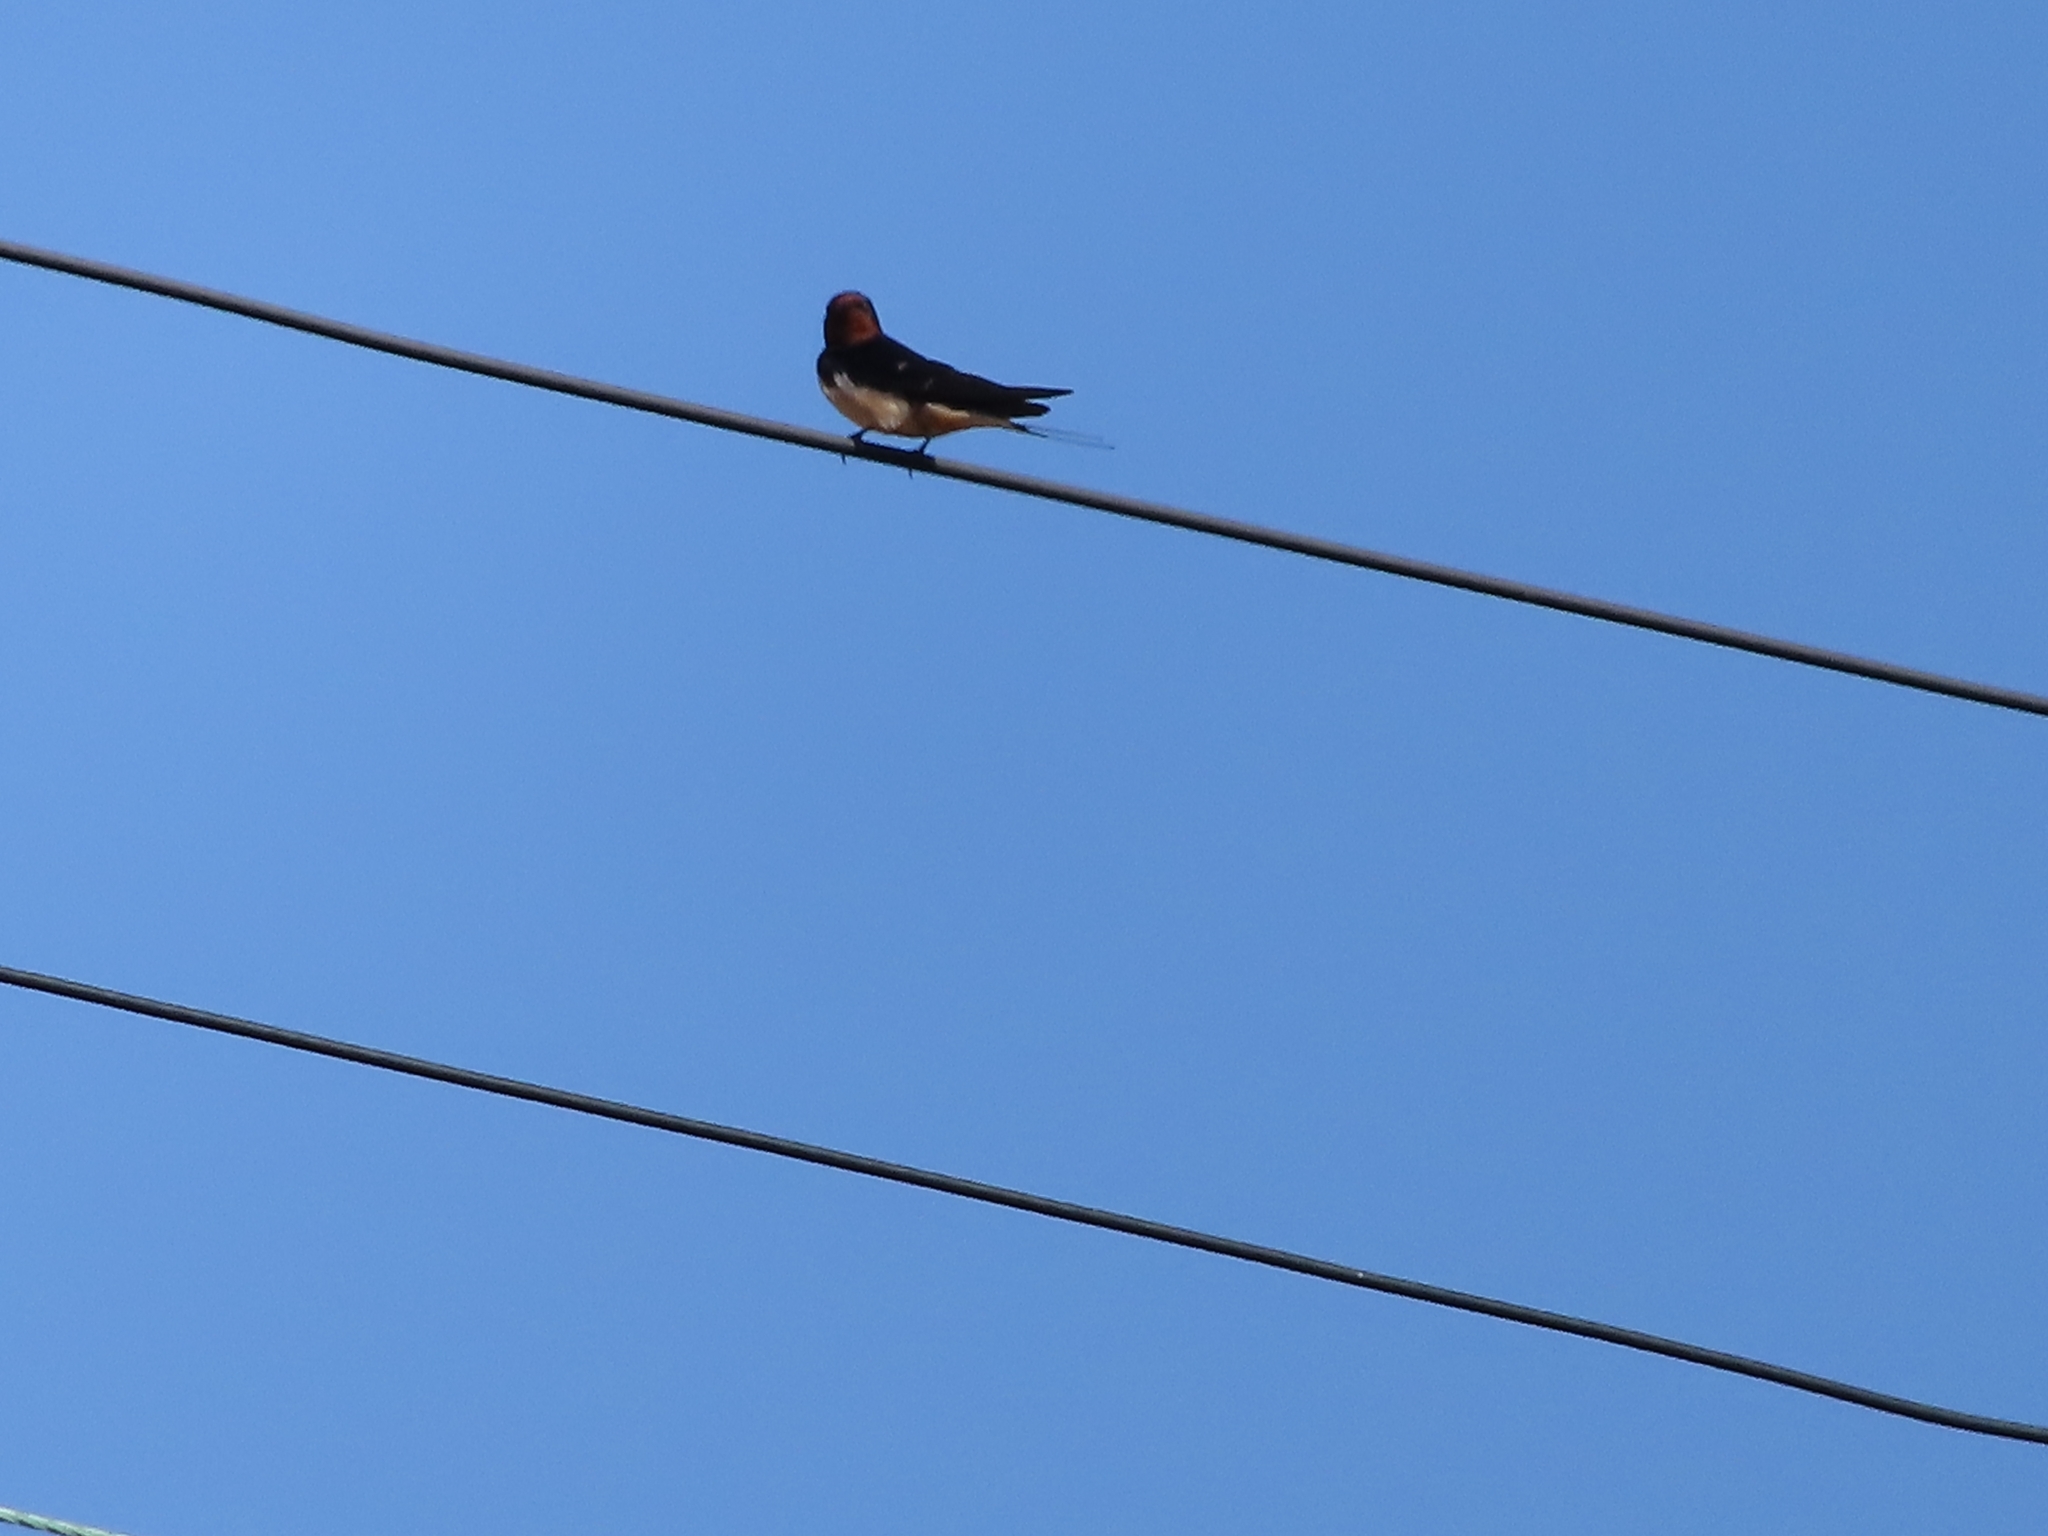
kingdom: Animalia
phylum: Chordata
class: Aves
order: Passeriformes
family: Hirundinidae
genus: Hirundo
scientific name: Hirundo rustica
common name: Barn swallow
